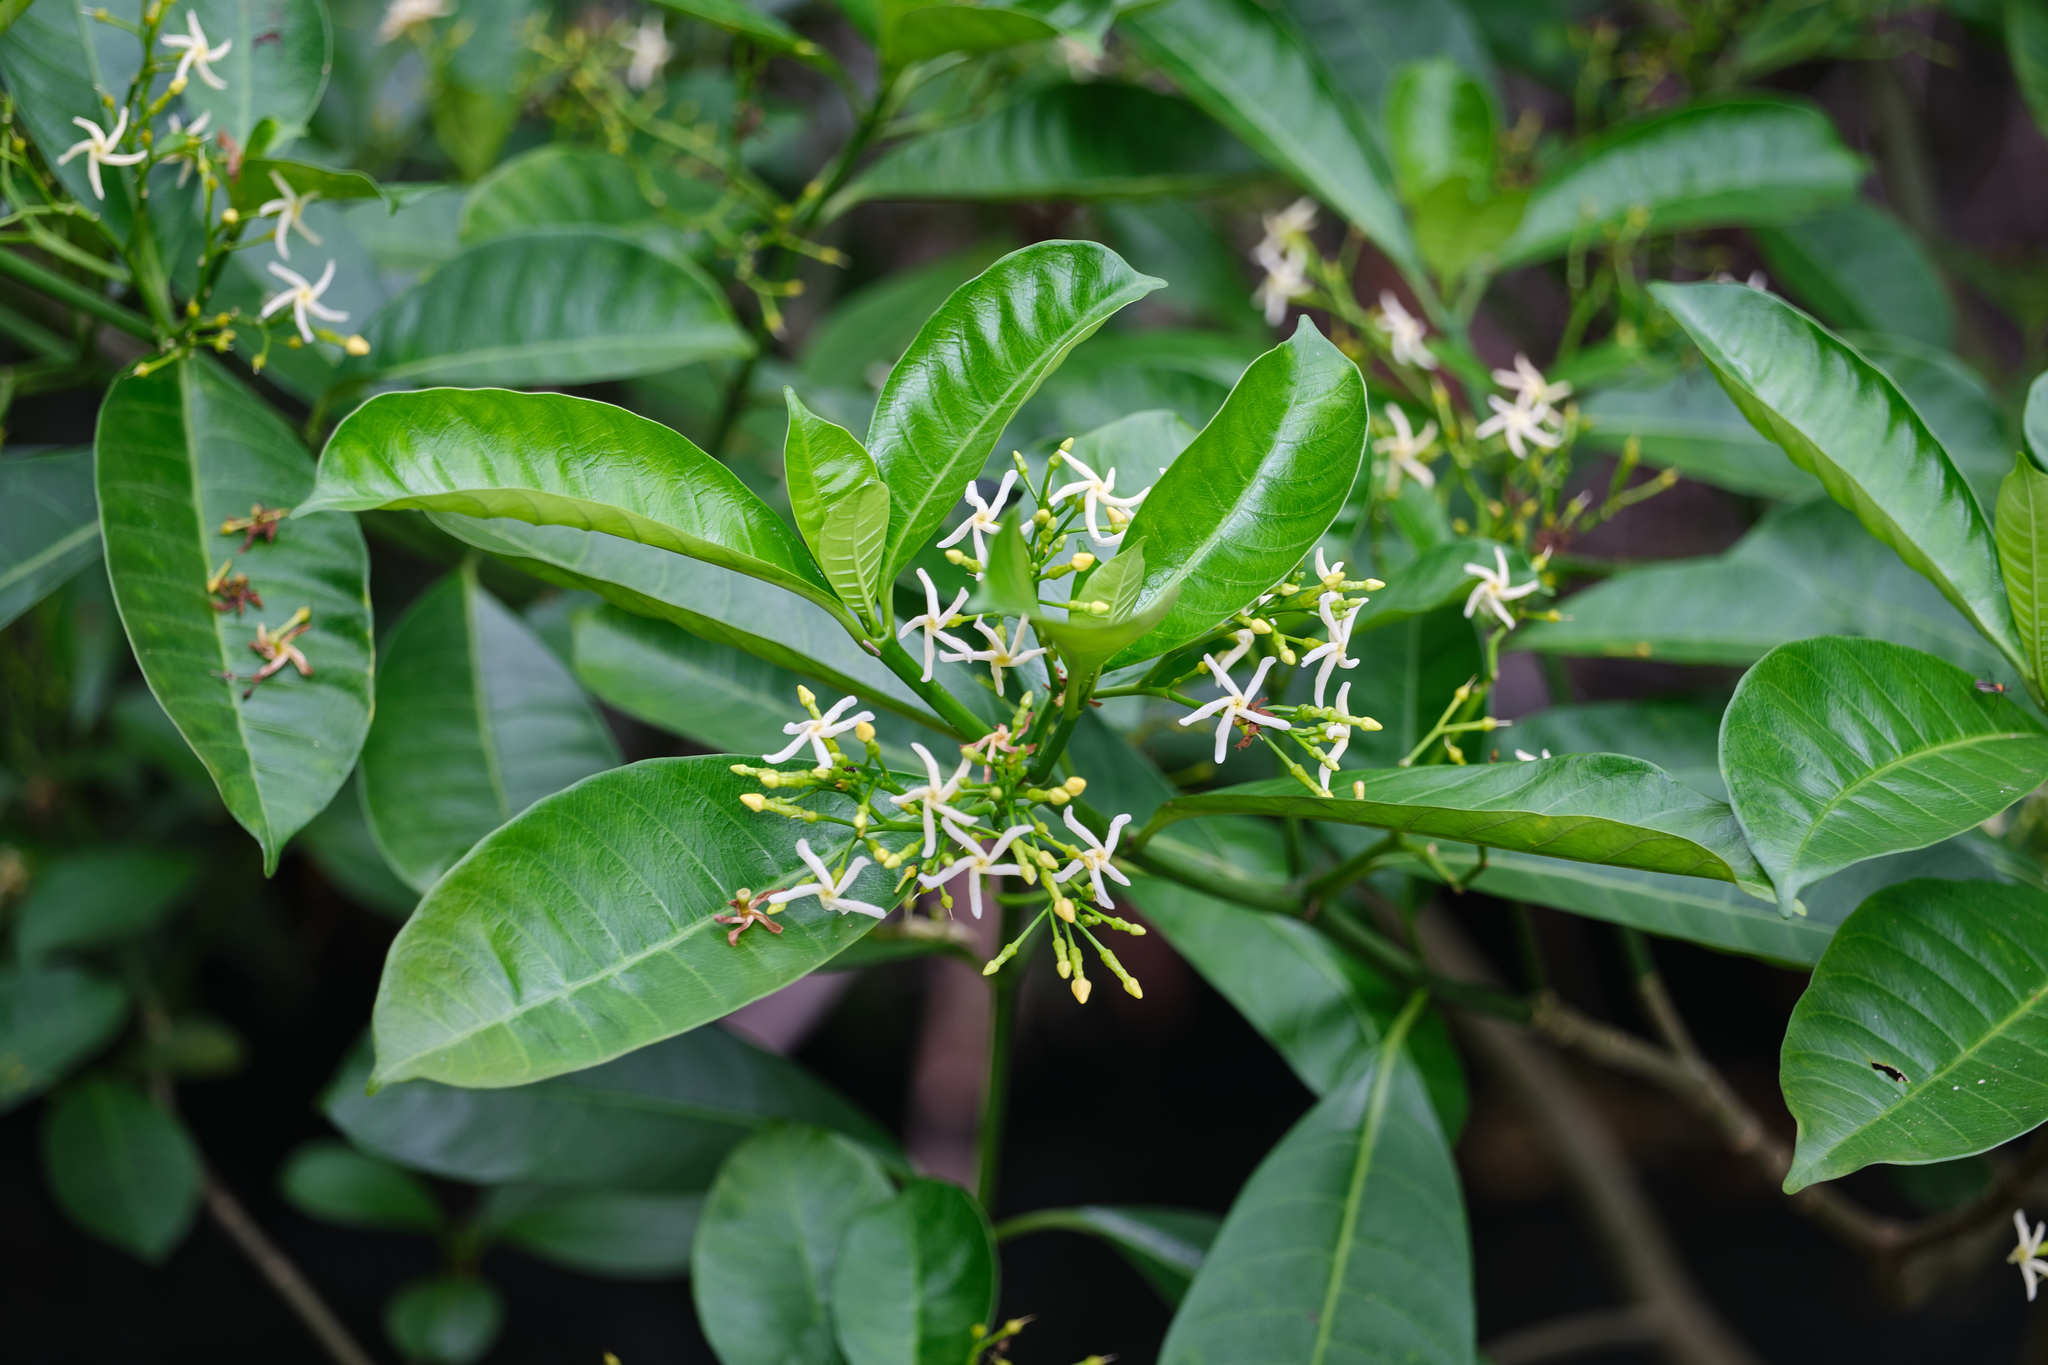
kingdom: Plantae
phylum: Tracheophyta
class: Magnoliopsida
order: Gentianales
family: Apocynaceae
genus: Tabernaemontana
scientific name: Tabernaemontana alba
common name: White milkwood
